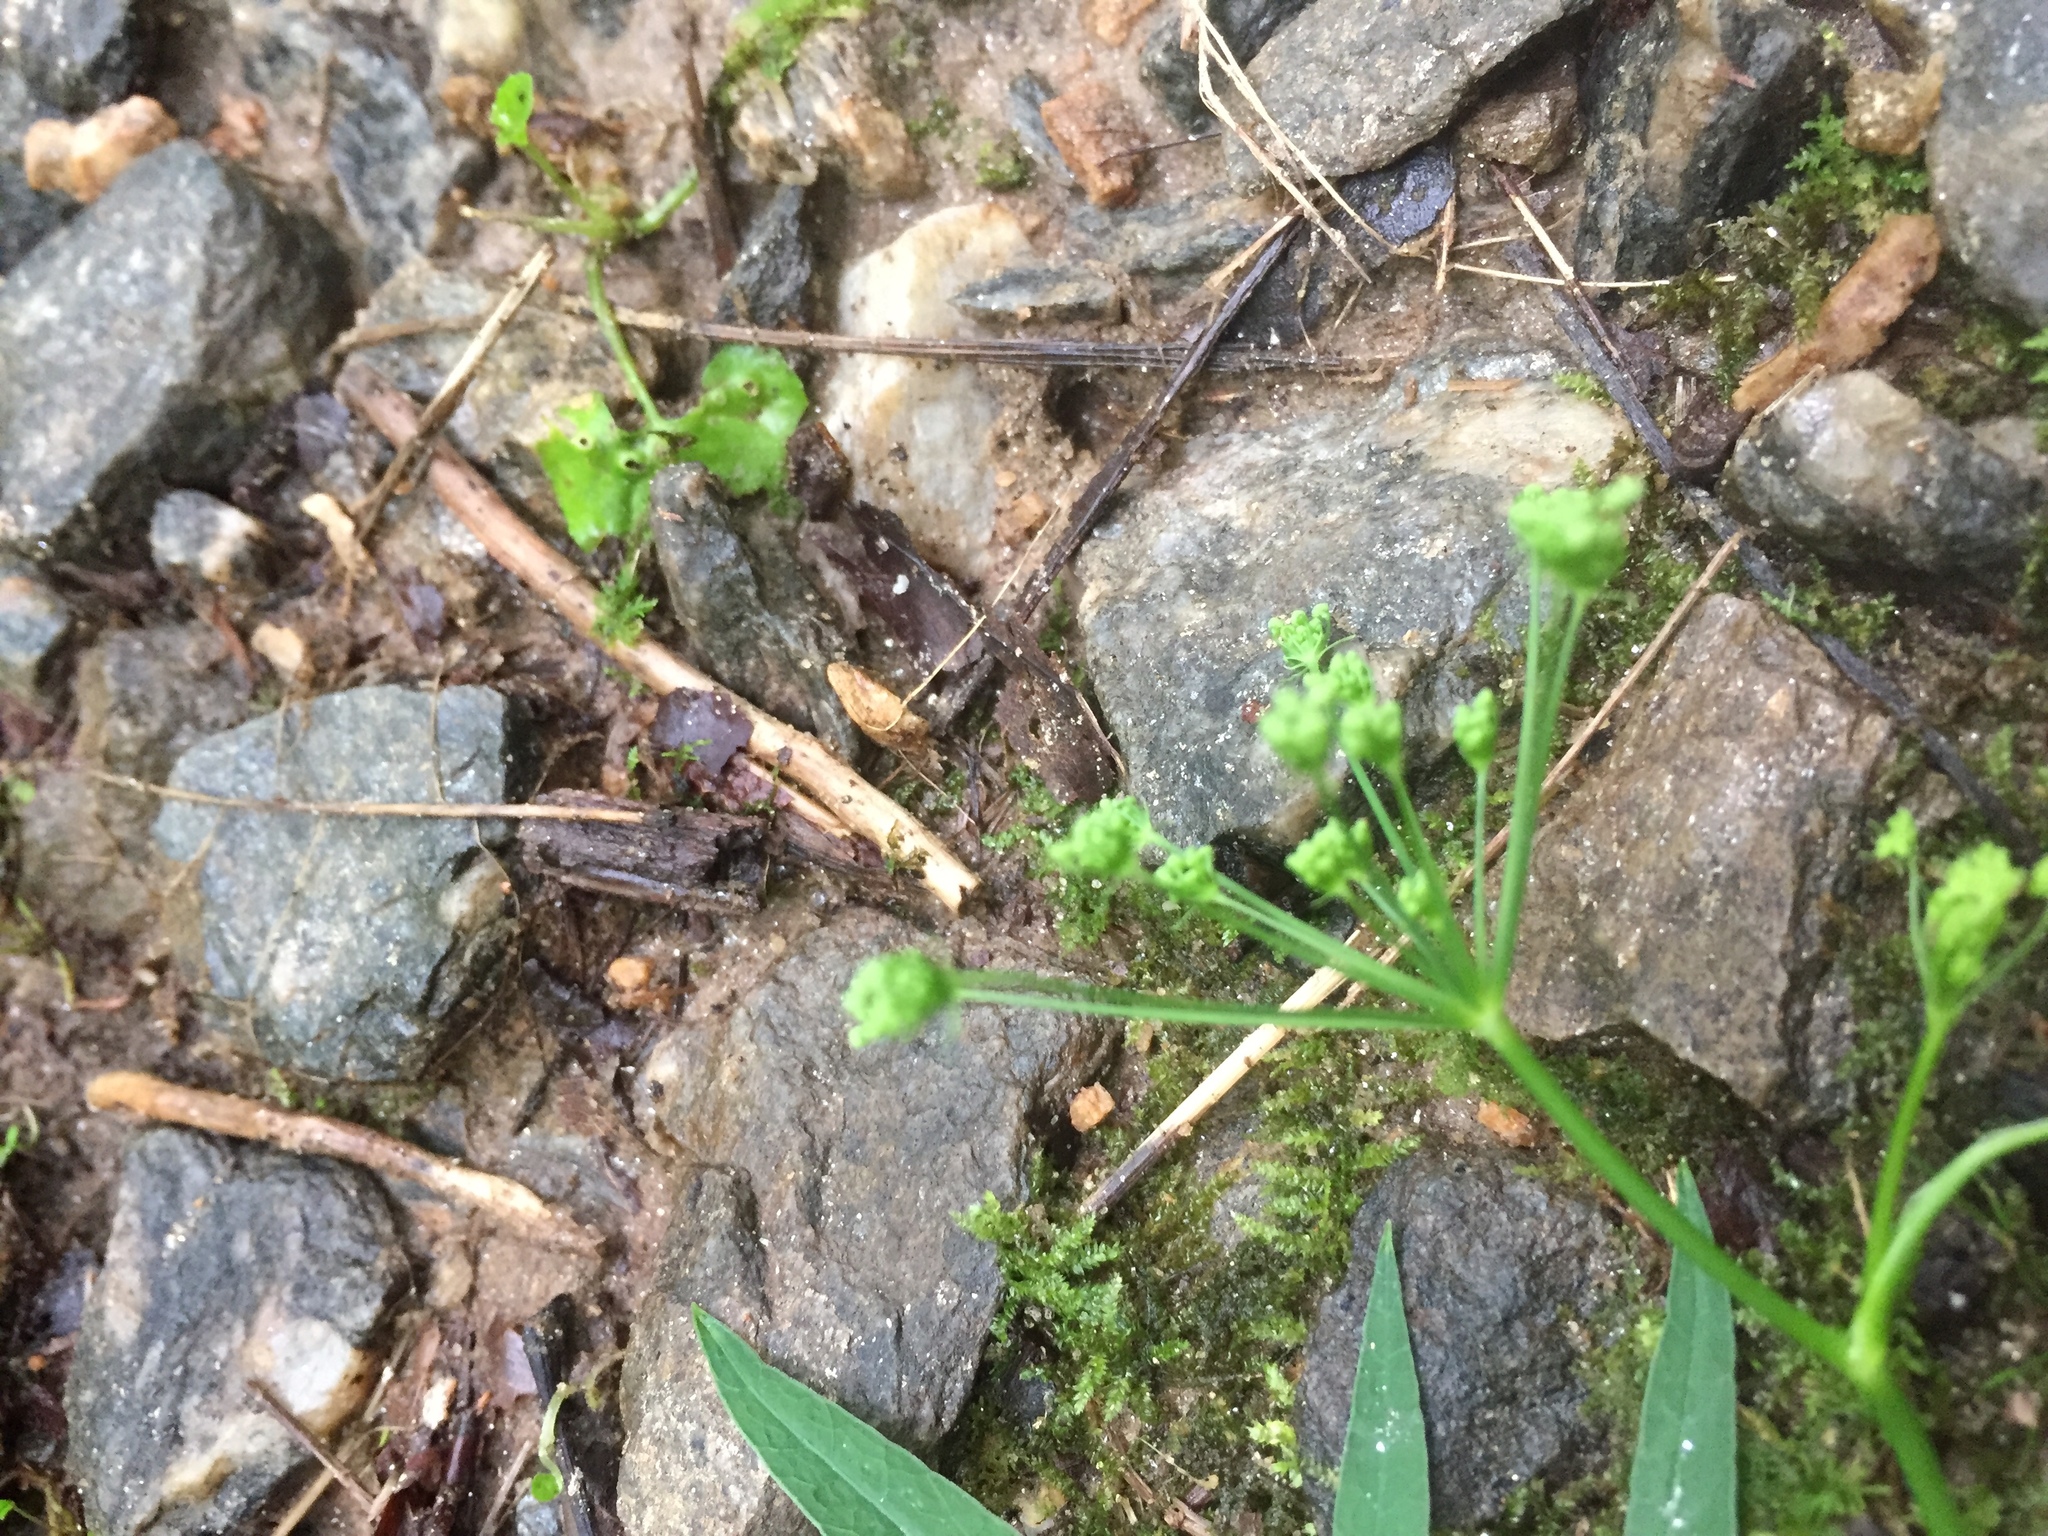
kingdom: Plantae
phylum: Tracheophyta
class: Magnoliopsida
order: Apiales
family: Apiaceae
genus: Oxypolis
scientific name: Oxypolis rigidior
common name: Cowbane
